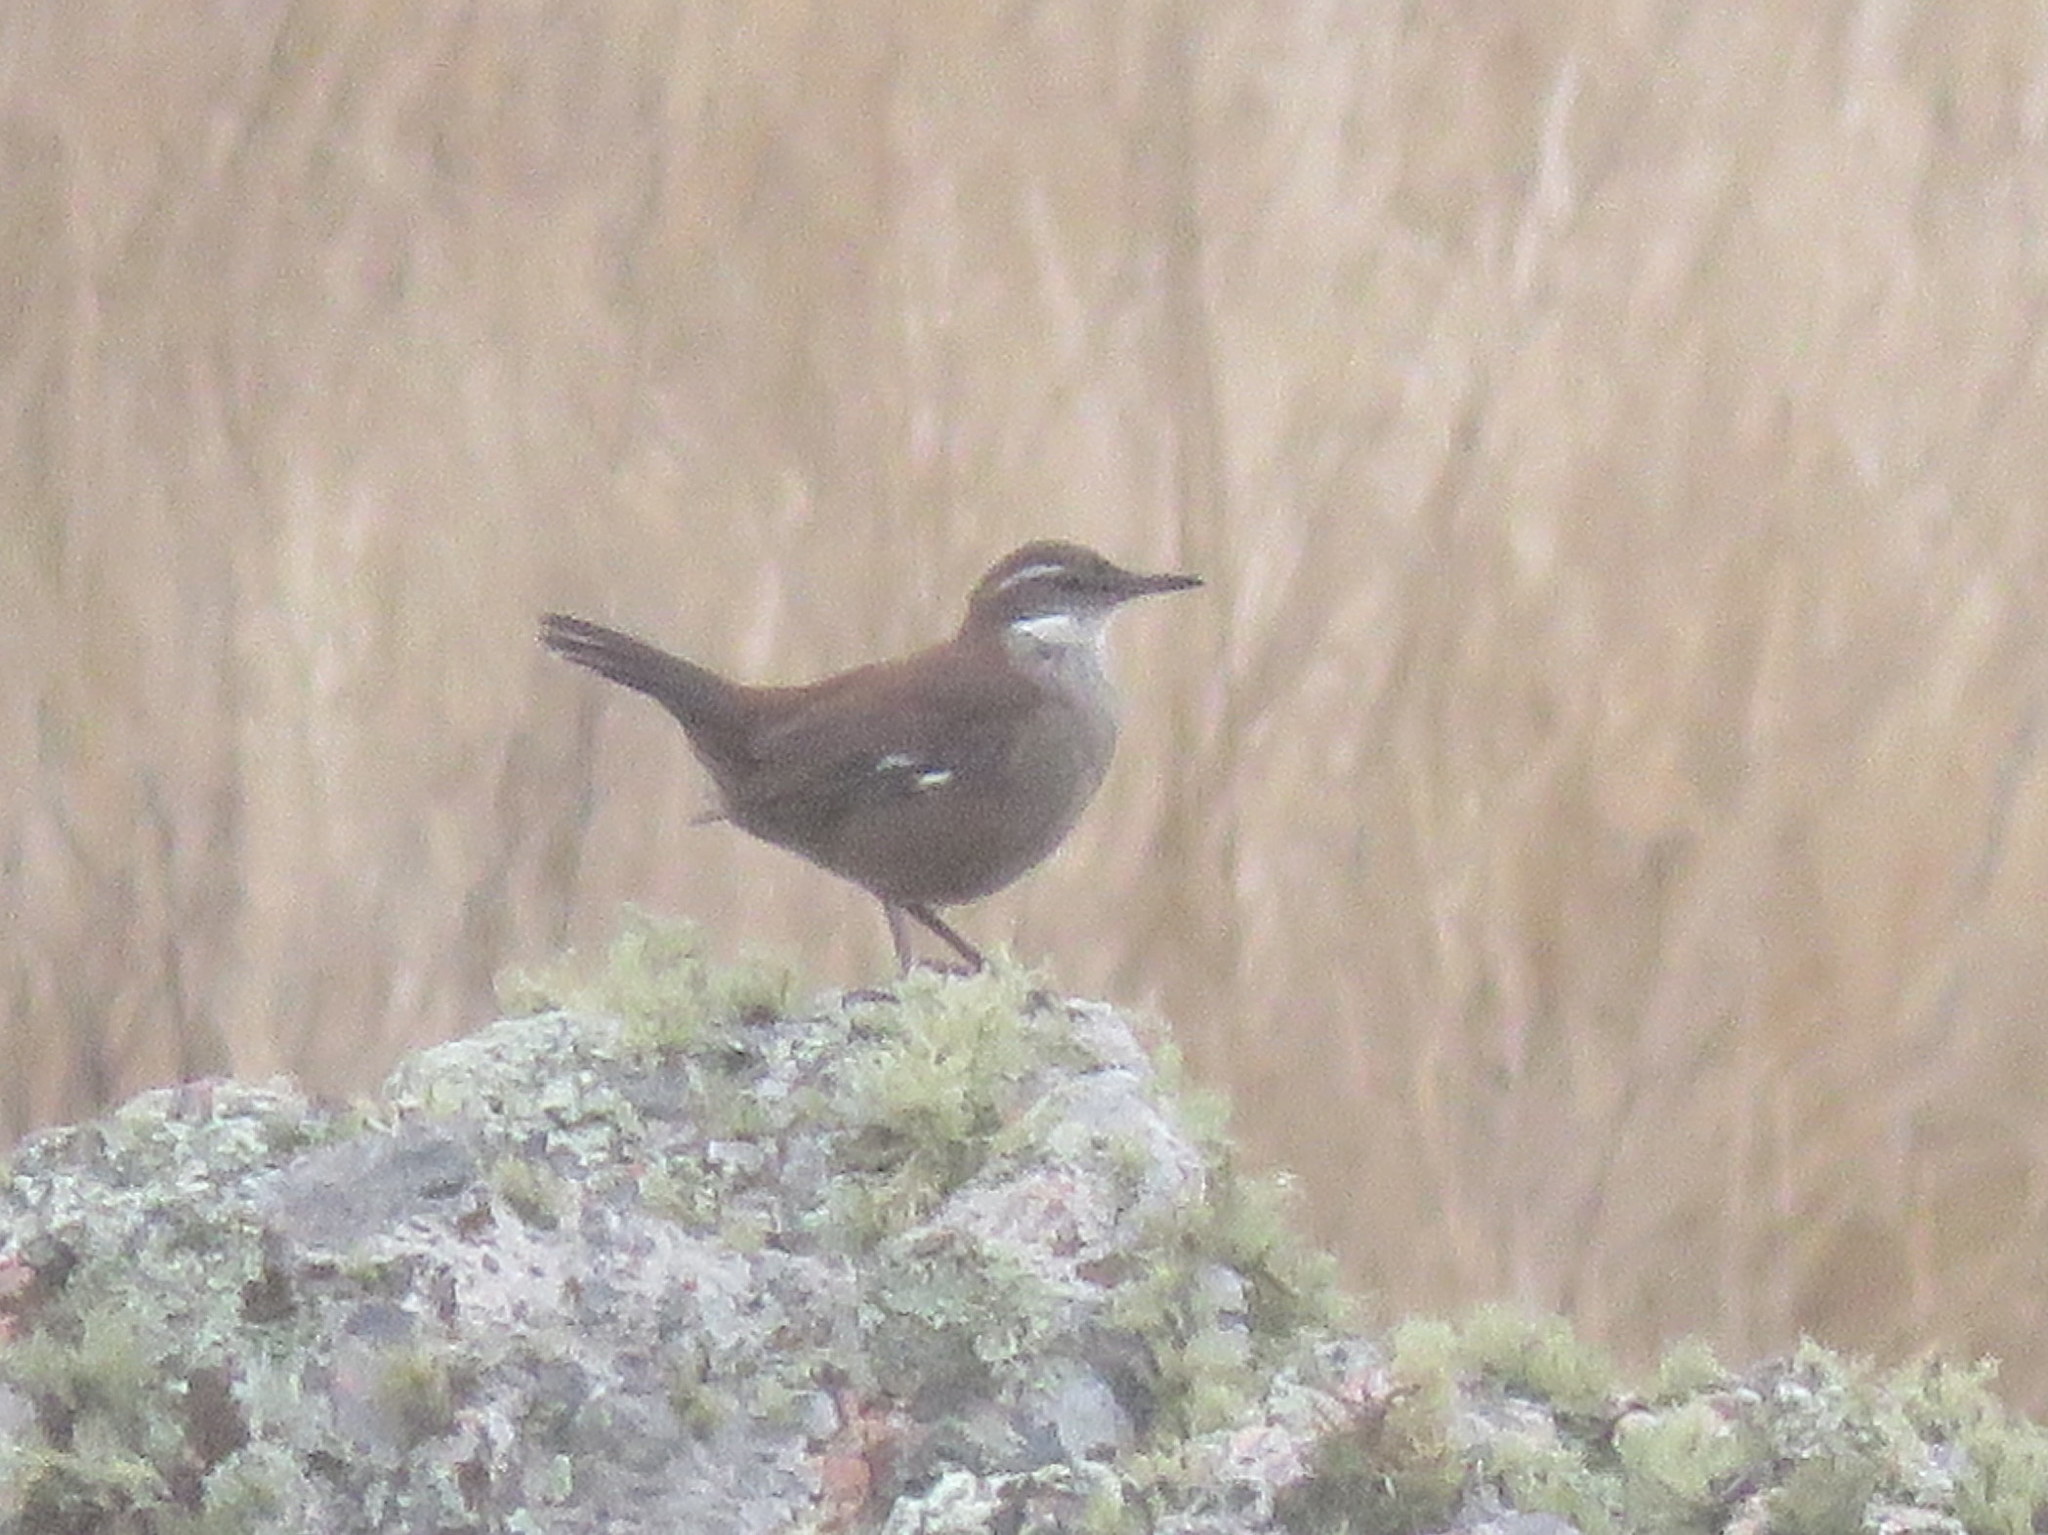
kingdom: Animalia
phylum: Chordata
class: Aves
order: Passeriformes
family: Furnariidae
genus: Cinclodes
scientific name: Cinclodes atacamensis
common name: White-winged cinclodes
